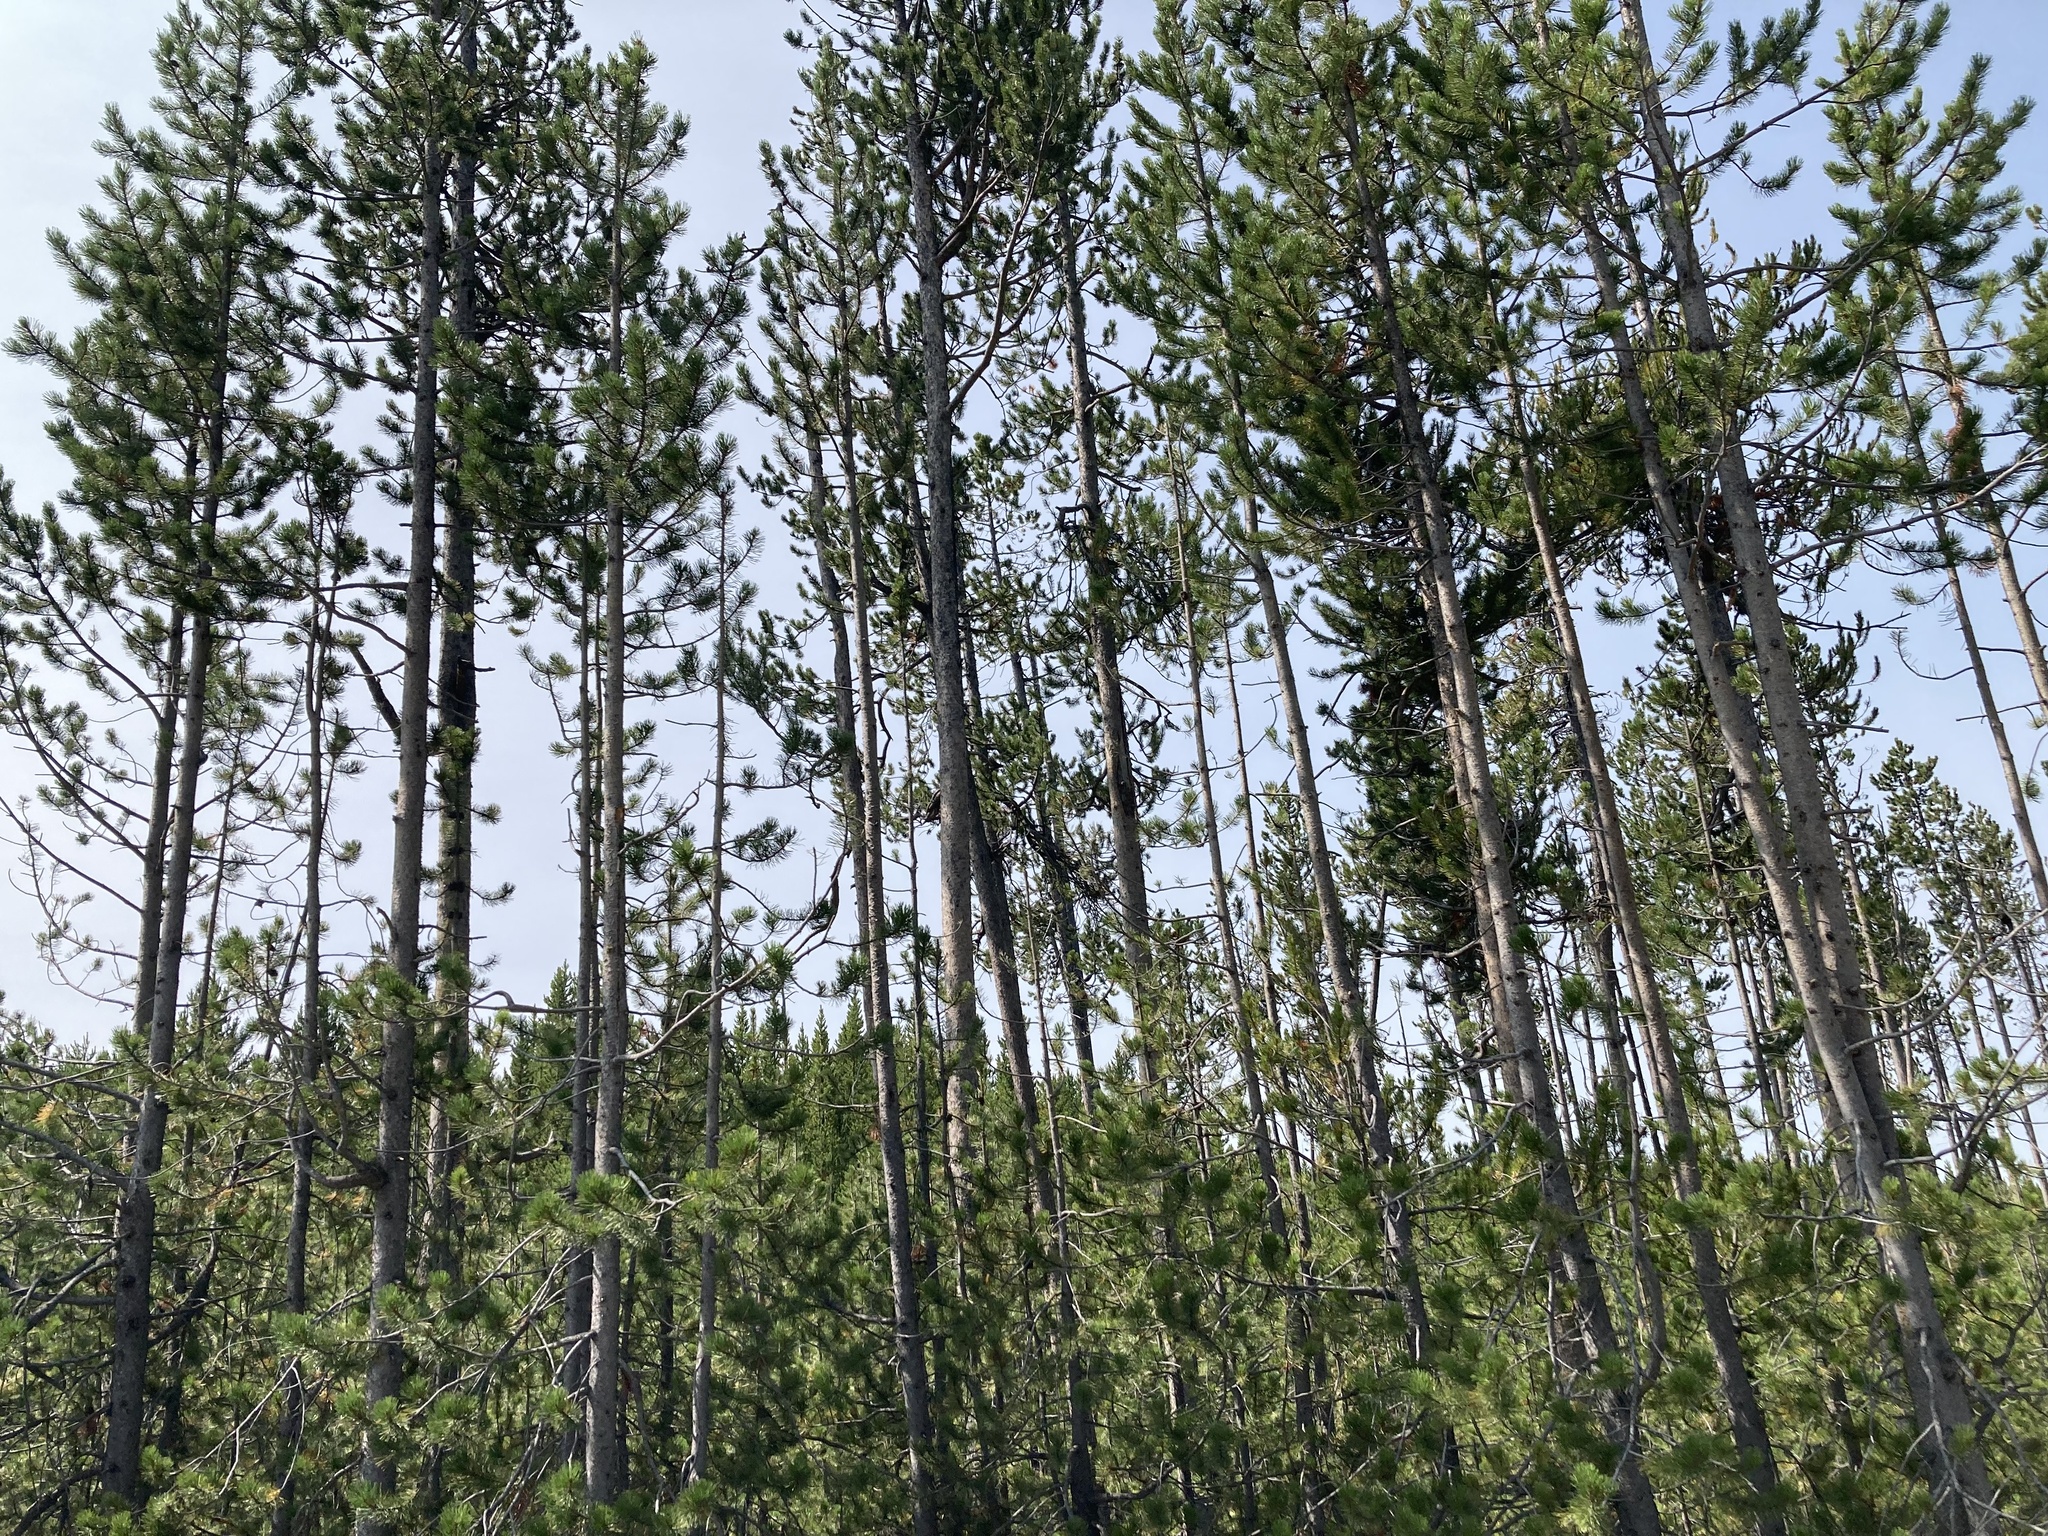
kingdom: Plantae
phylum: Tracheophyta
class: Pinopsida
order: Pinales
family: Pinaceae
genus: Pinus
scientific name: Pinus contorta
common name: Lodgepole pine
